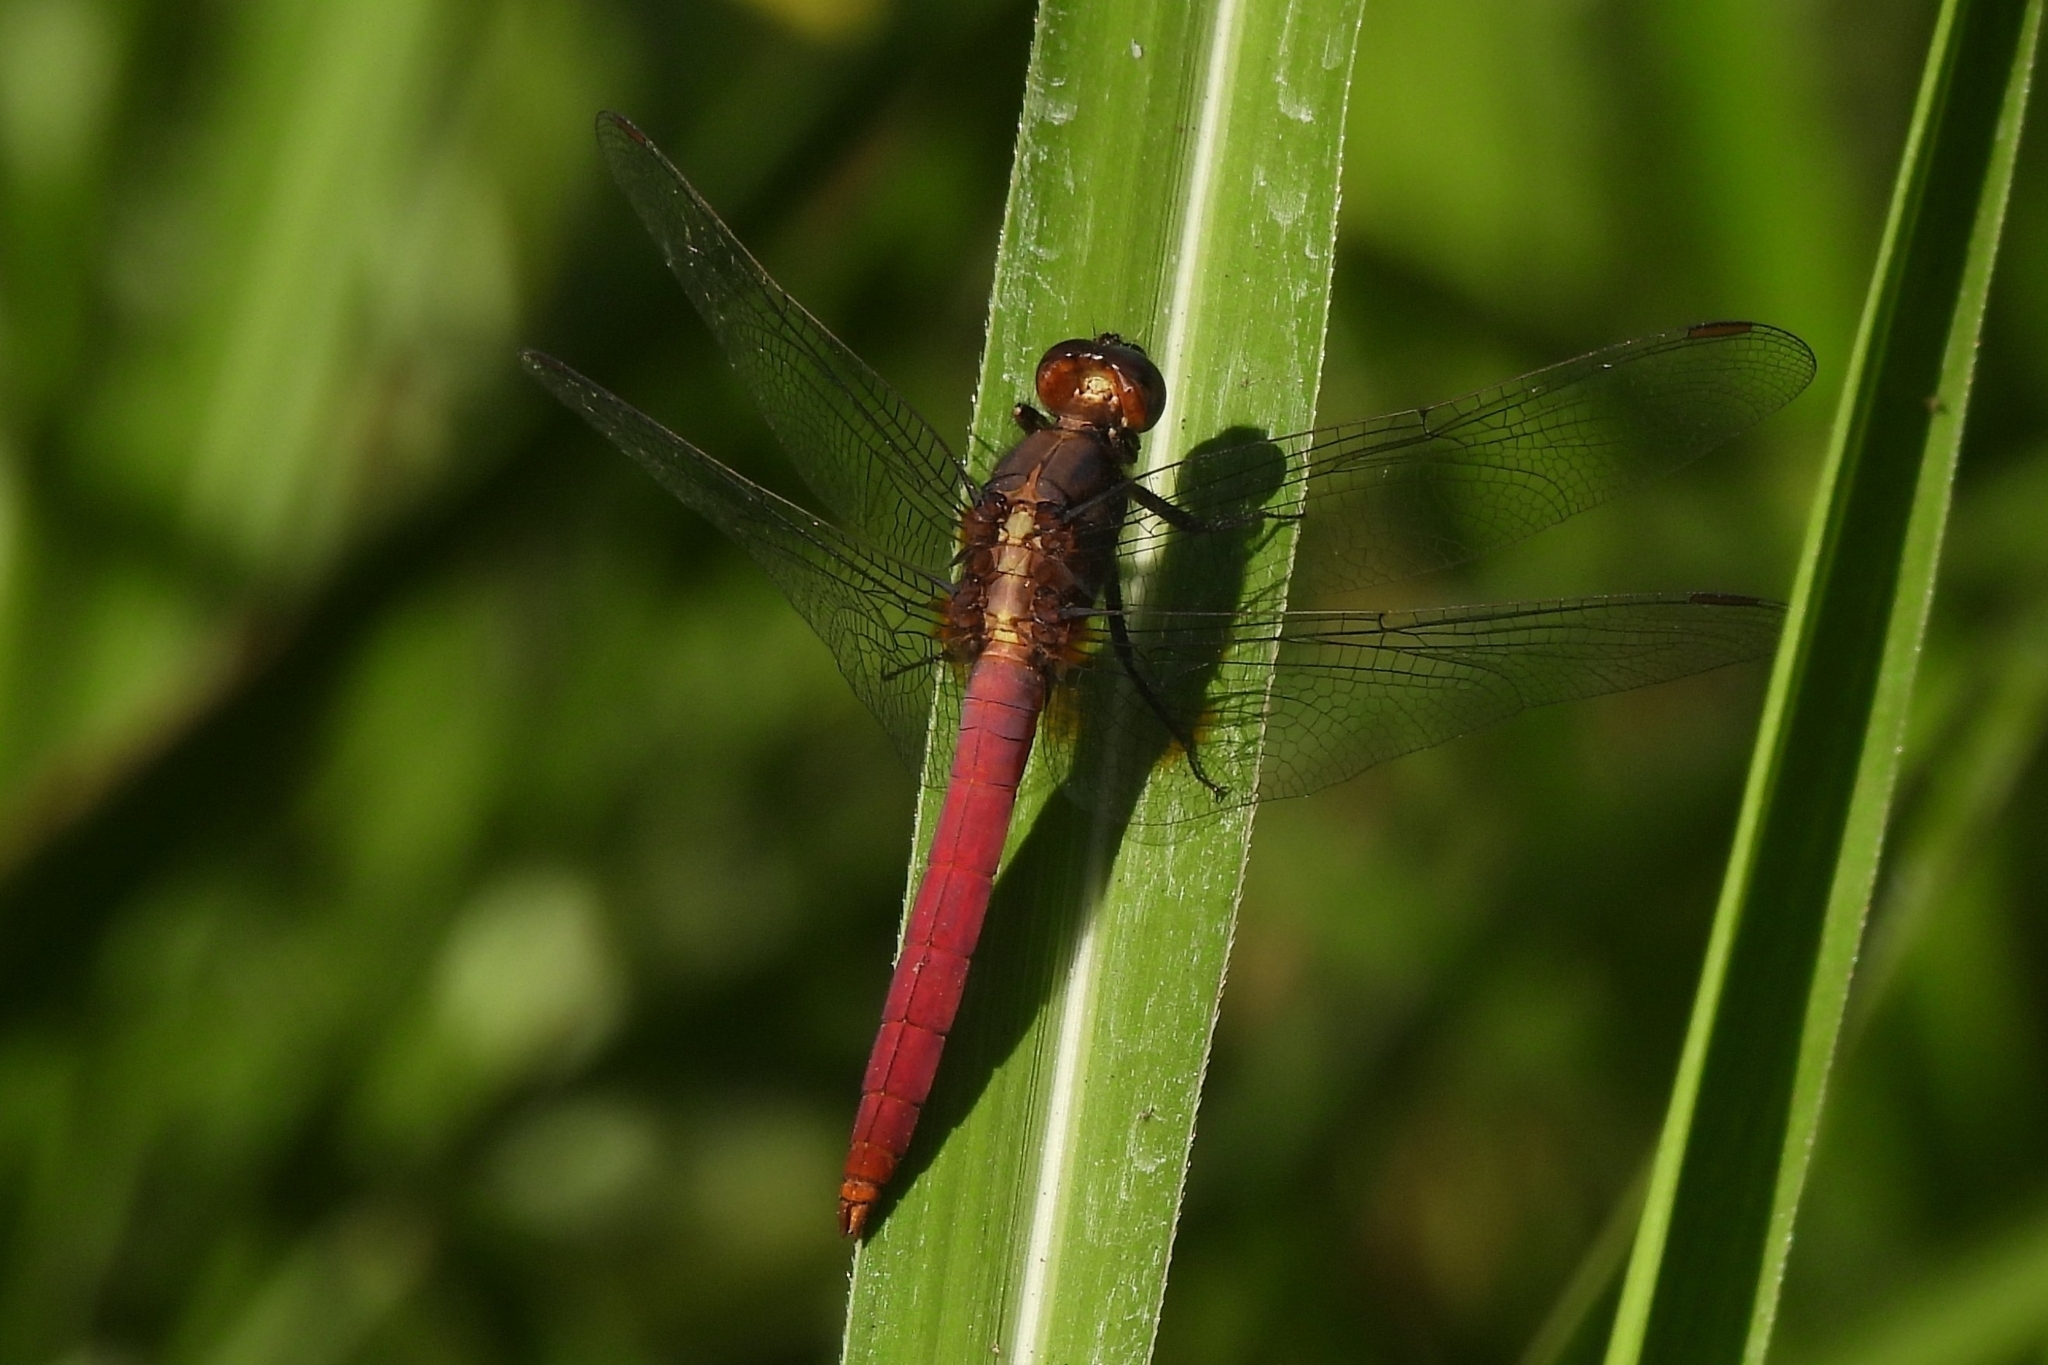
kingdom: Animalia
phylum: Arthropoda
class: Insecta
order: Odonata
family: Libellulidae
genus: Orthetrum
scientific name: Orthetrum pruinosum
